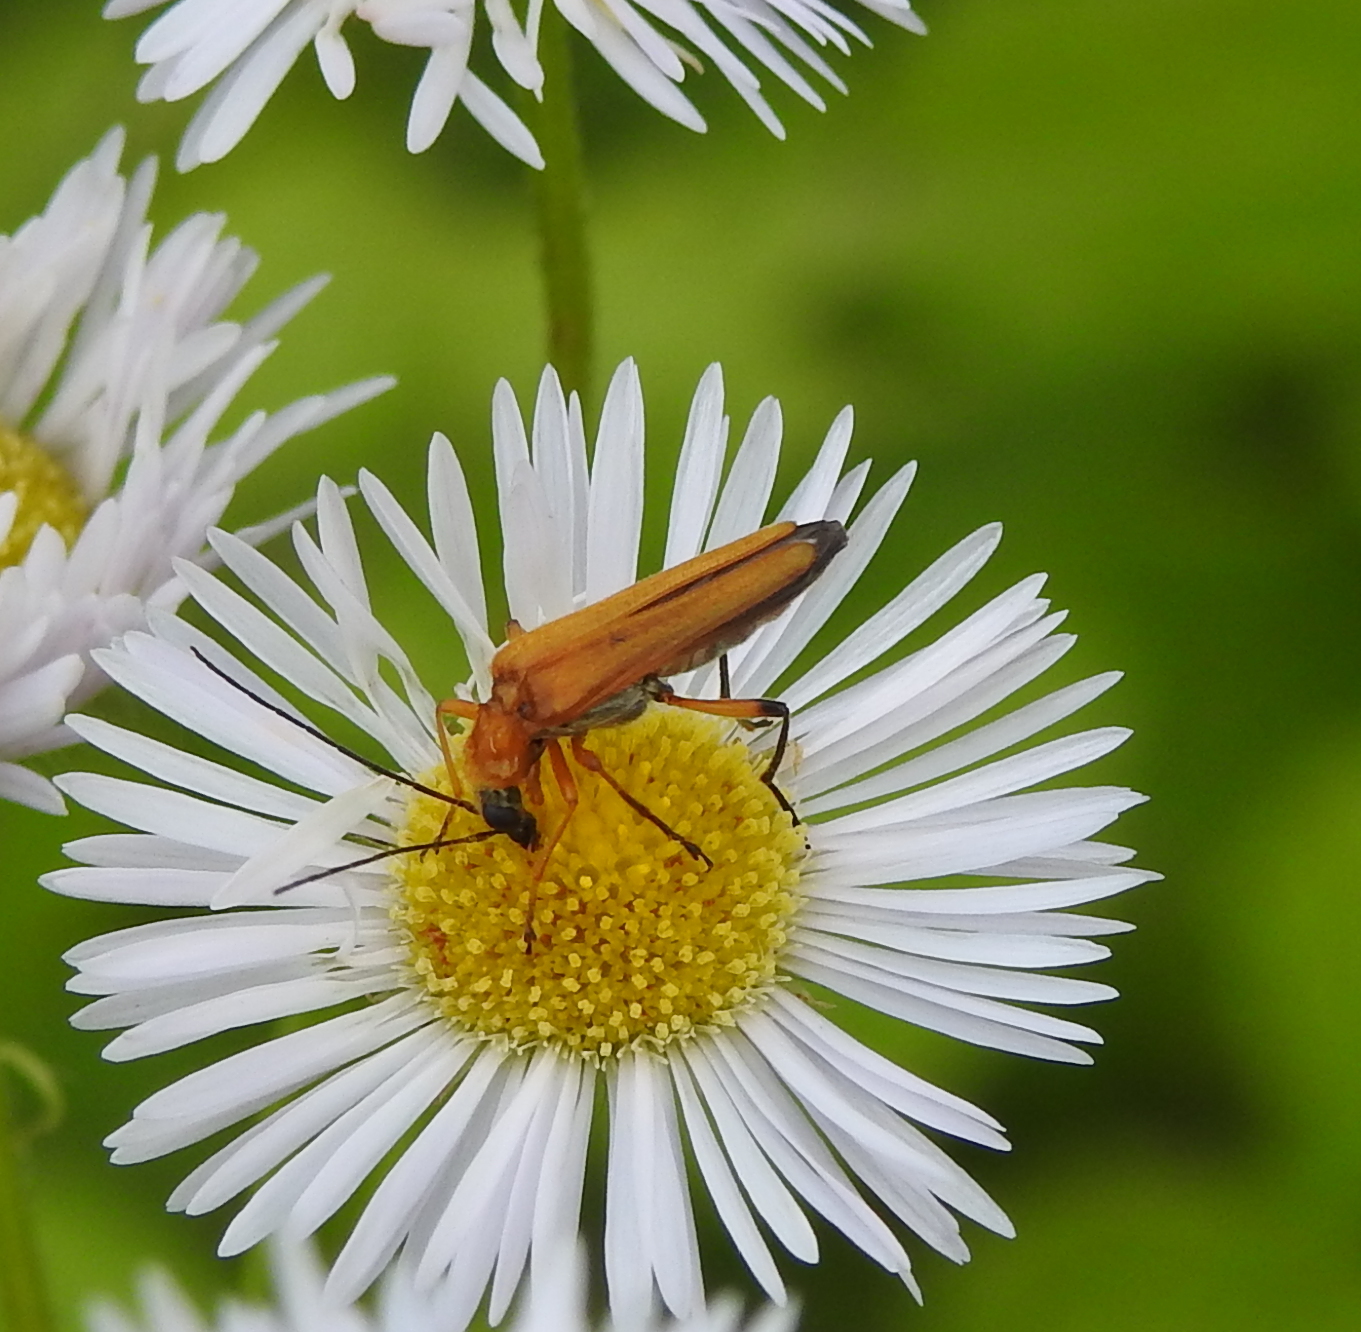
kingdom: Animalia
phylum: Arthropoda
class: Insecta
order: Coleoptera
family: Oedemeridae
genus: Oedemera
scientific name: Oedemera podagrariae
